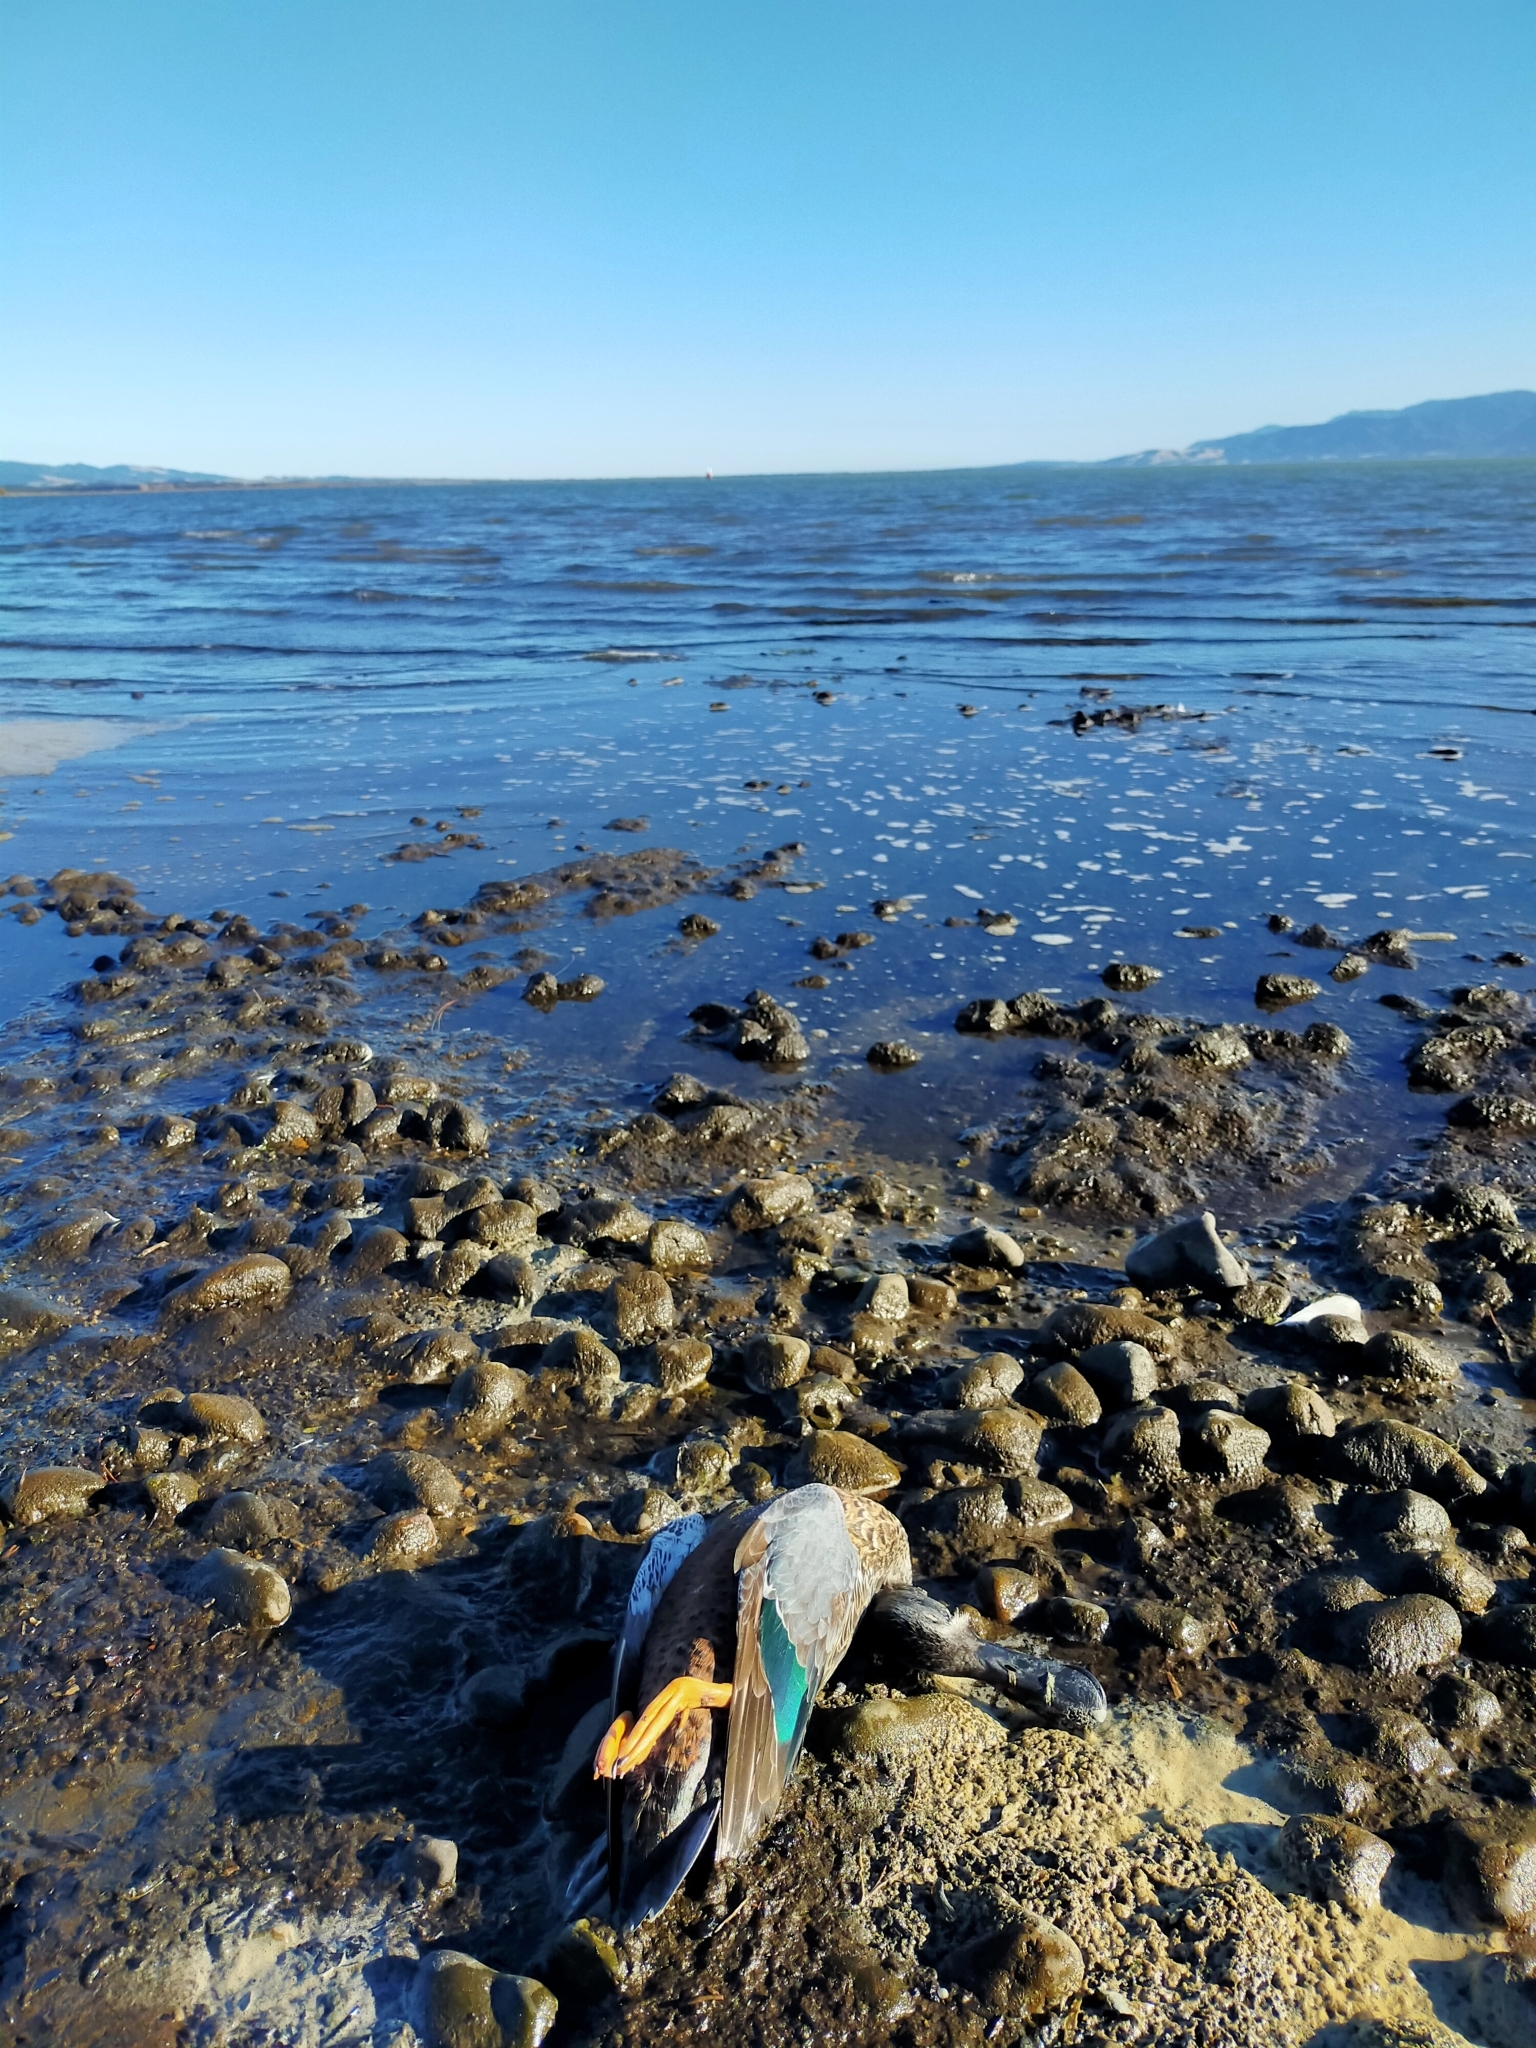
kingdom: Animalia
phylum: Chordata
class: Aves
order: Anseriformes
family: Anatidae
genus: Spatula
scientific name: Spatula rhynchotis
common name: Australian shoveler
